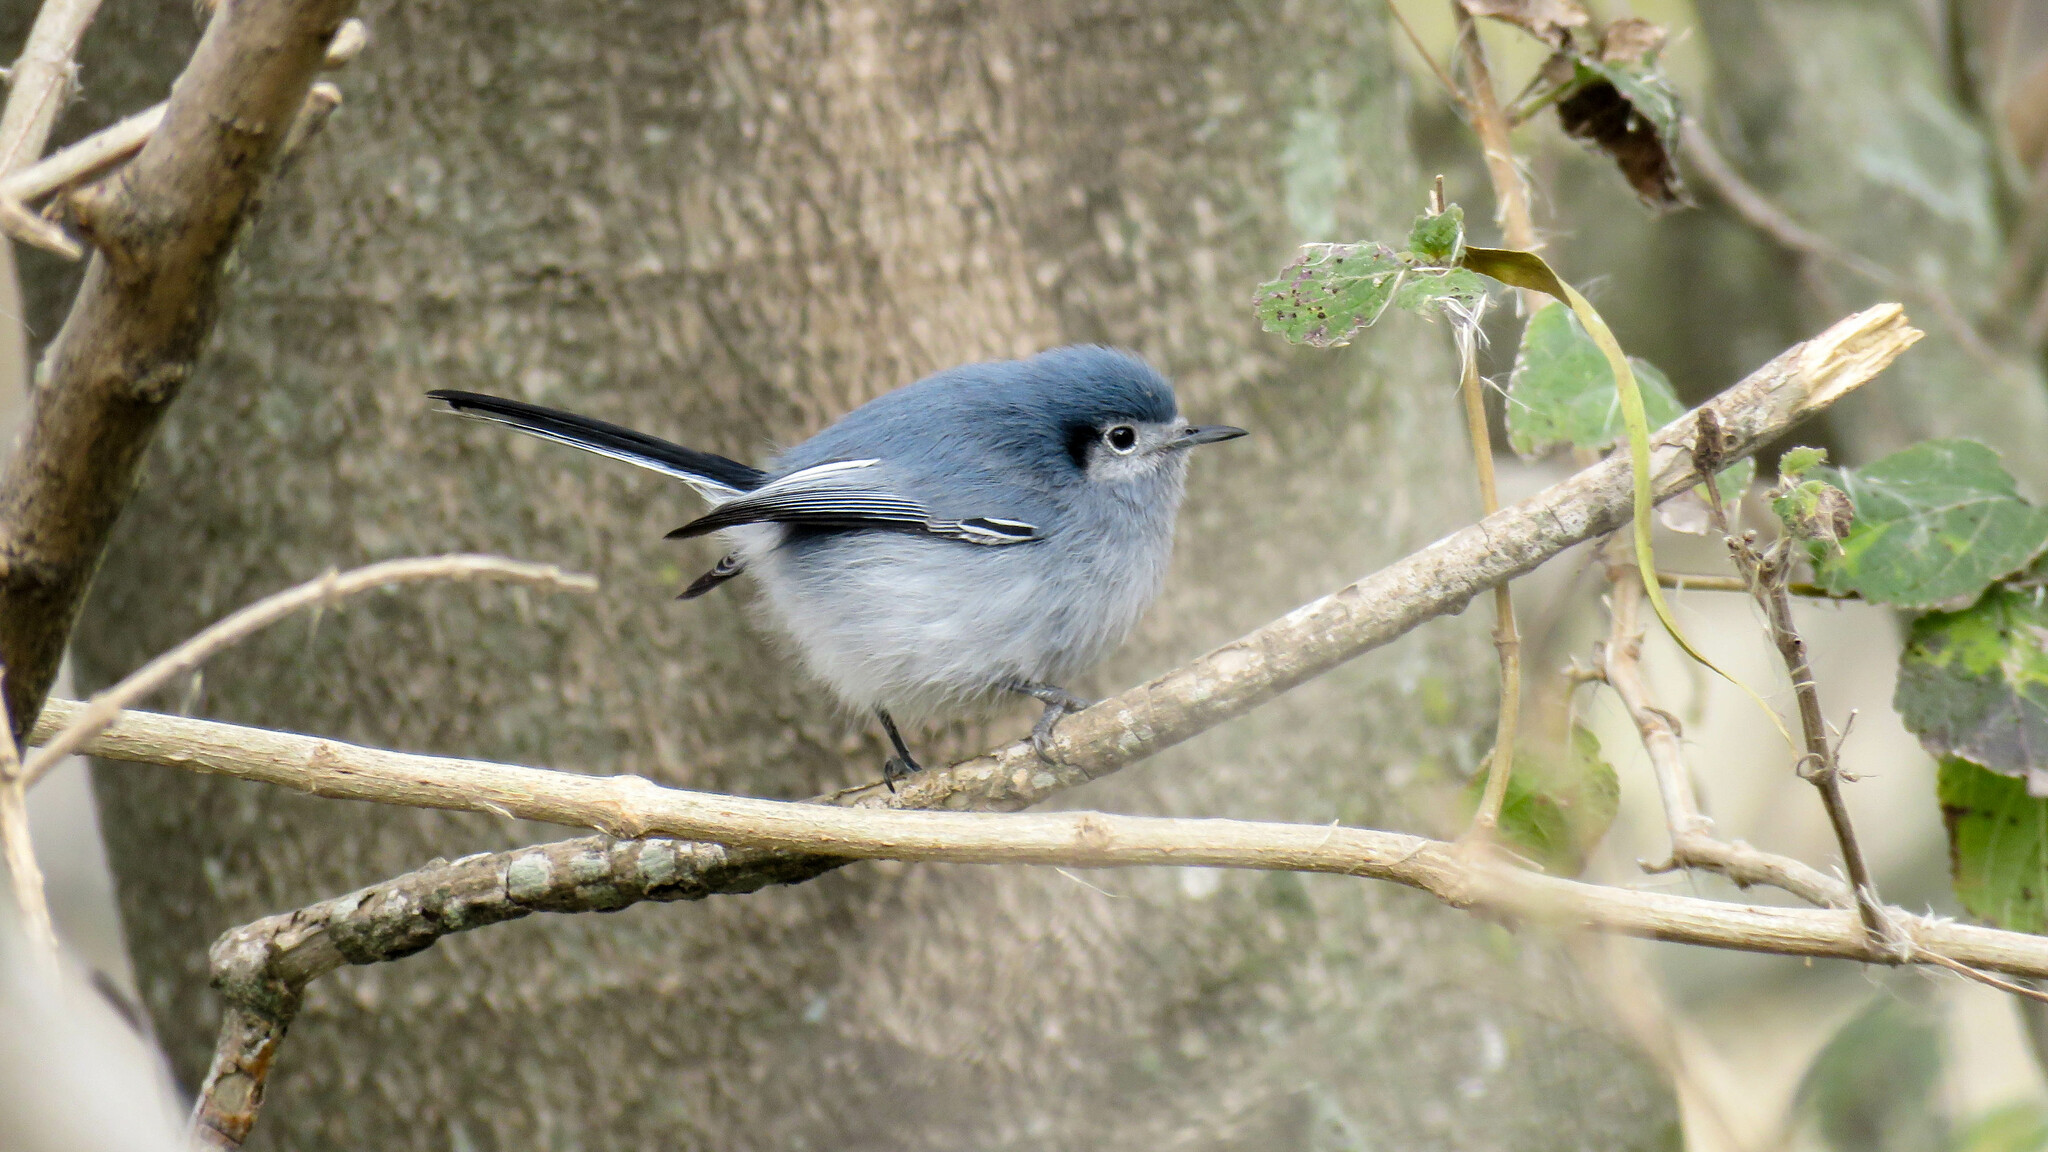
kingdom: Animalia
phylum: Chordata
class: Aves
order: Passeriformes
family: Polioptilidae
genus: Polioptila
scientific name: Polioptila dumicola
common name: Masked gnatcatcher
